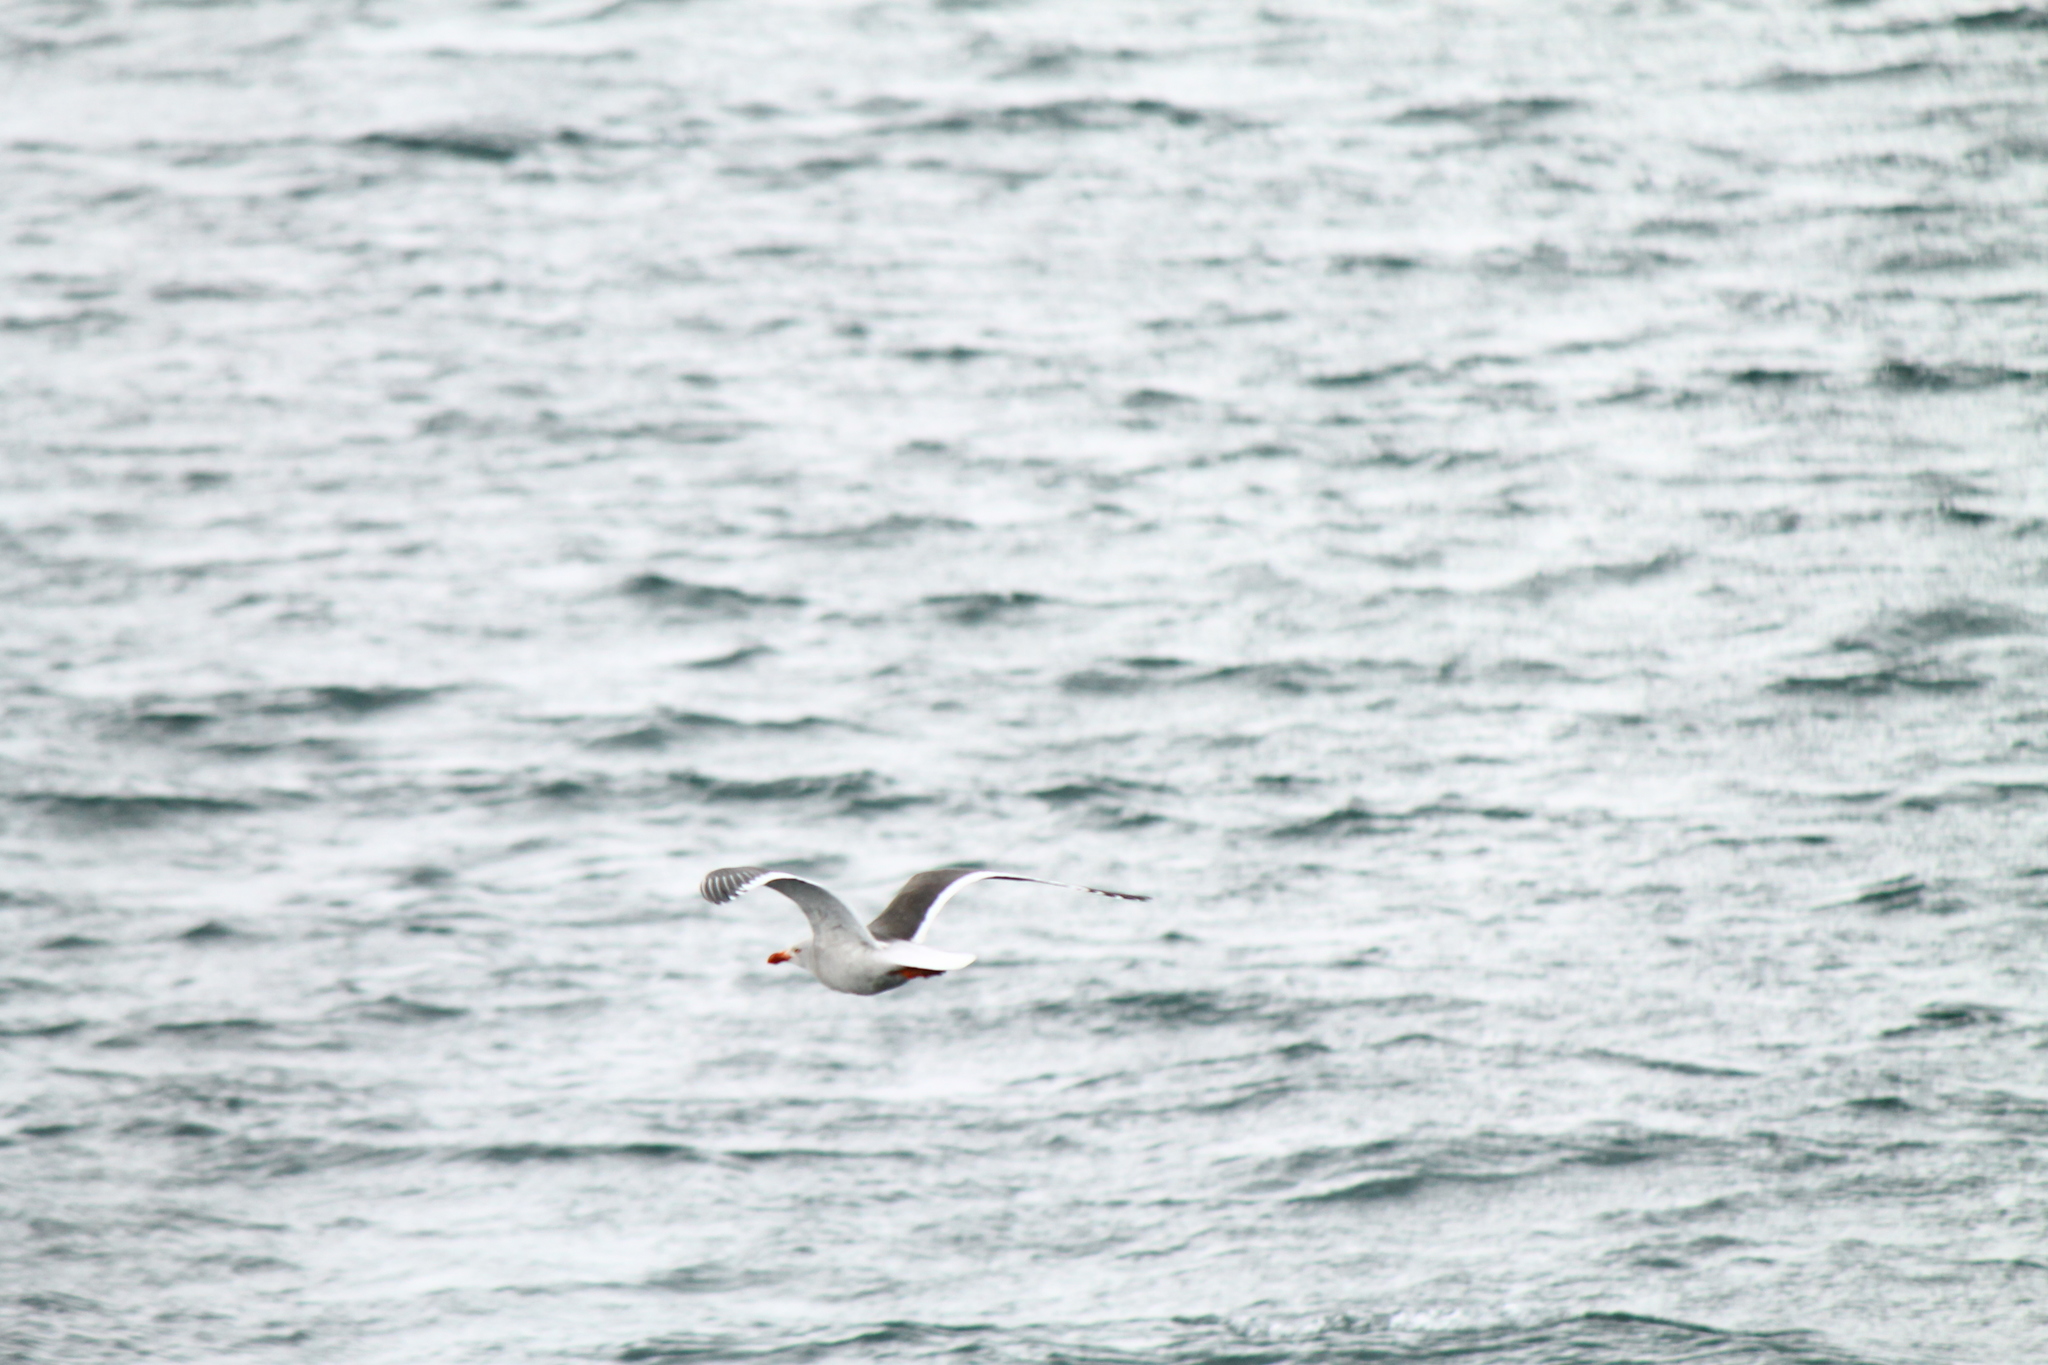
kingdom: Animalia
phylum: Chordata
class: Aves
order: Charadriiformes
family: Laridae
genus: Leucophaeus
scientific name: Leucophaeus scoresbii
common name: Dolphin gull
